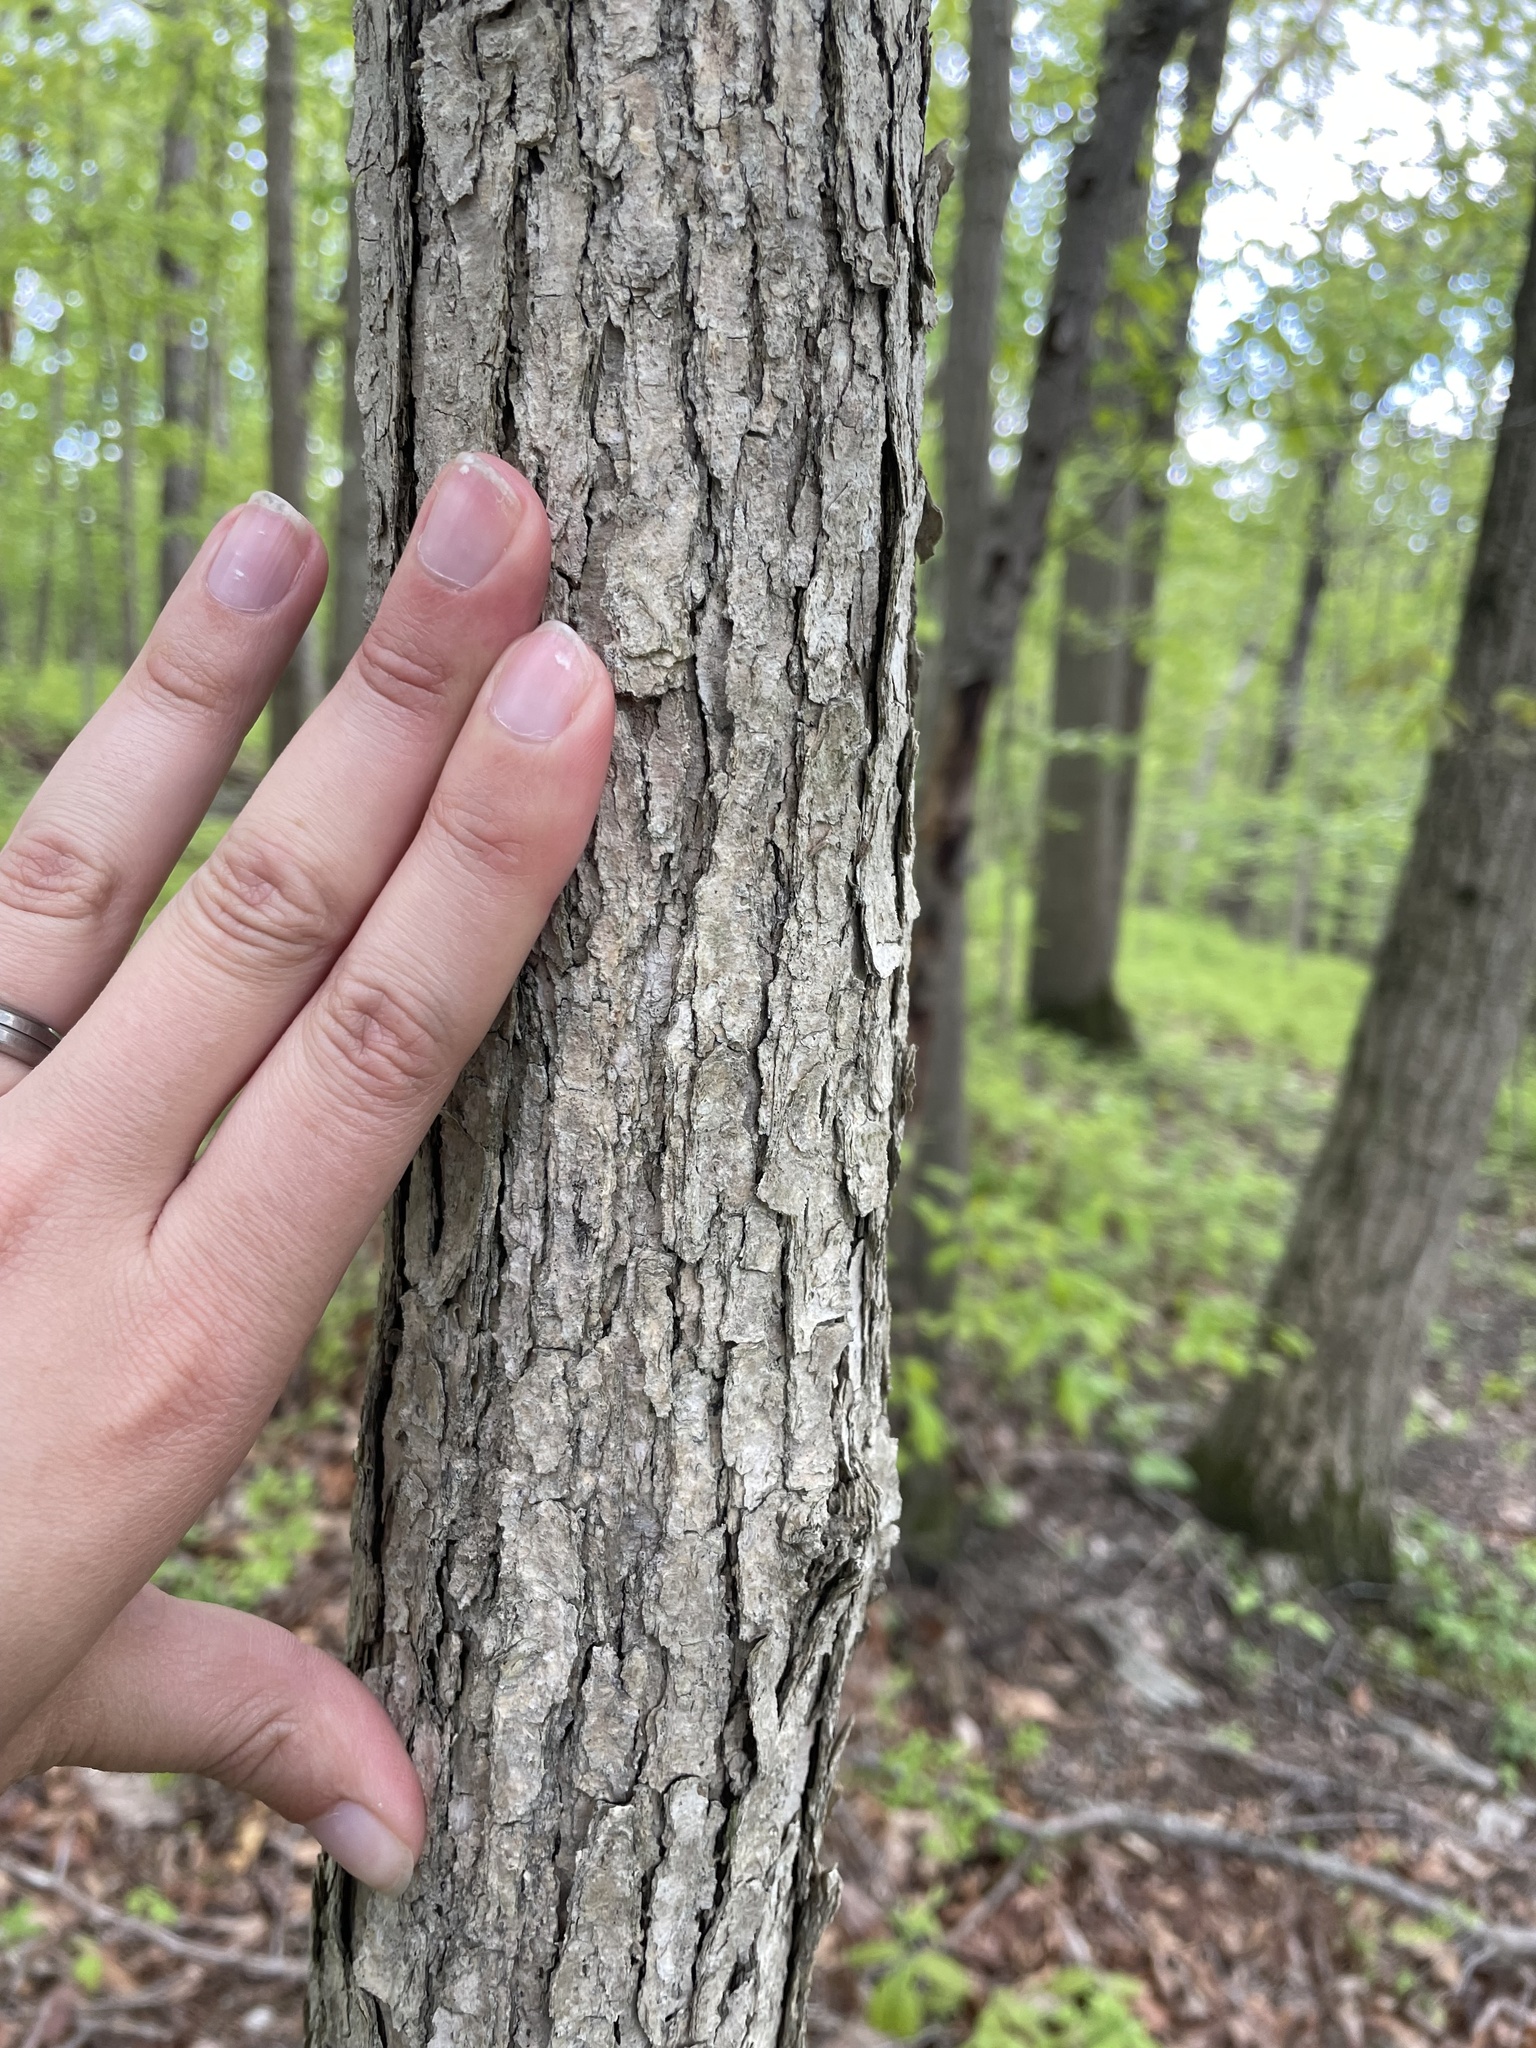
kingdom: Plantae
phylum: Tracheophyta
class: Magnoliopsida
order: Cornales
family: Nyssaceae
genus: Nyssa
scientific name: Nyssa sylvatica
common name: Black tupelo
